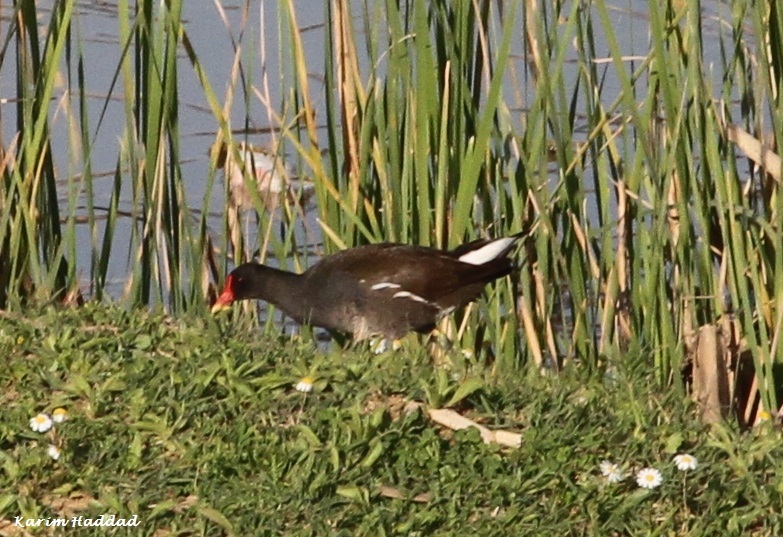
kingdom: Animalia
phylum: Chordata
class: Aves
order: Gruiformes
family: Rallidae
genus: Gallinula
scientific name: Gallinula chloropus
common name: Common moorhen
